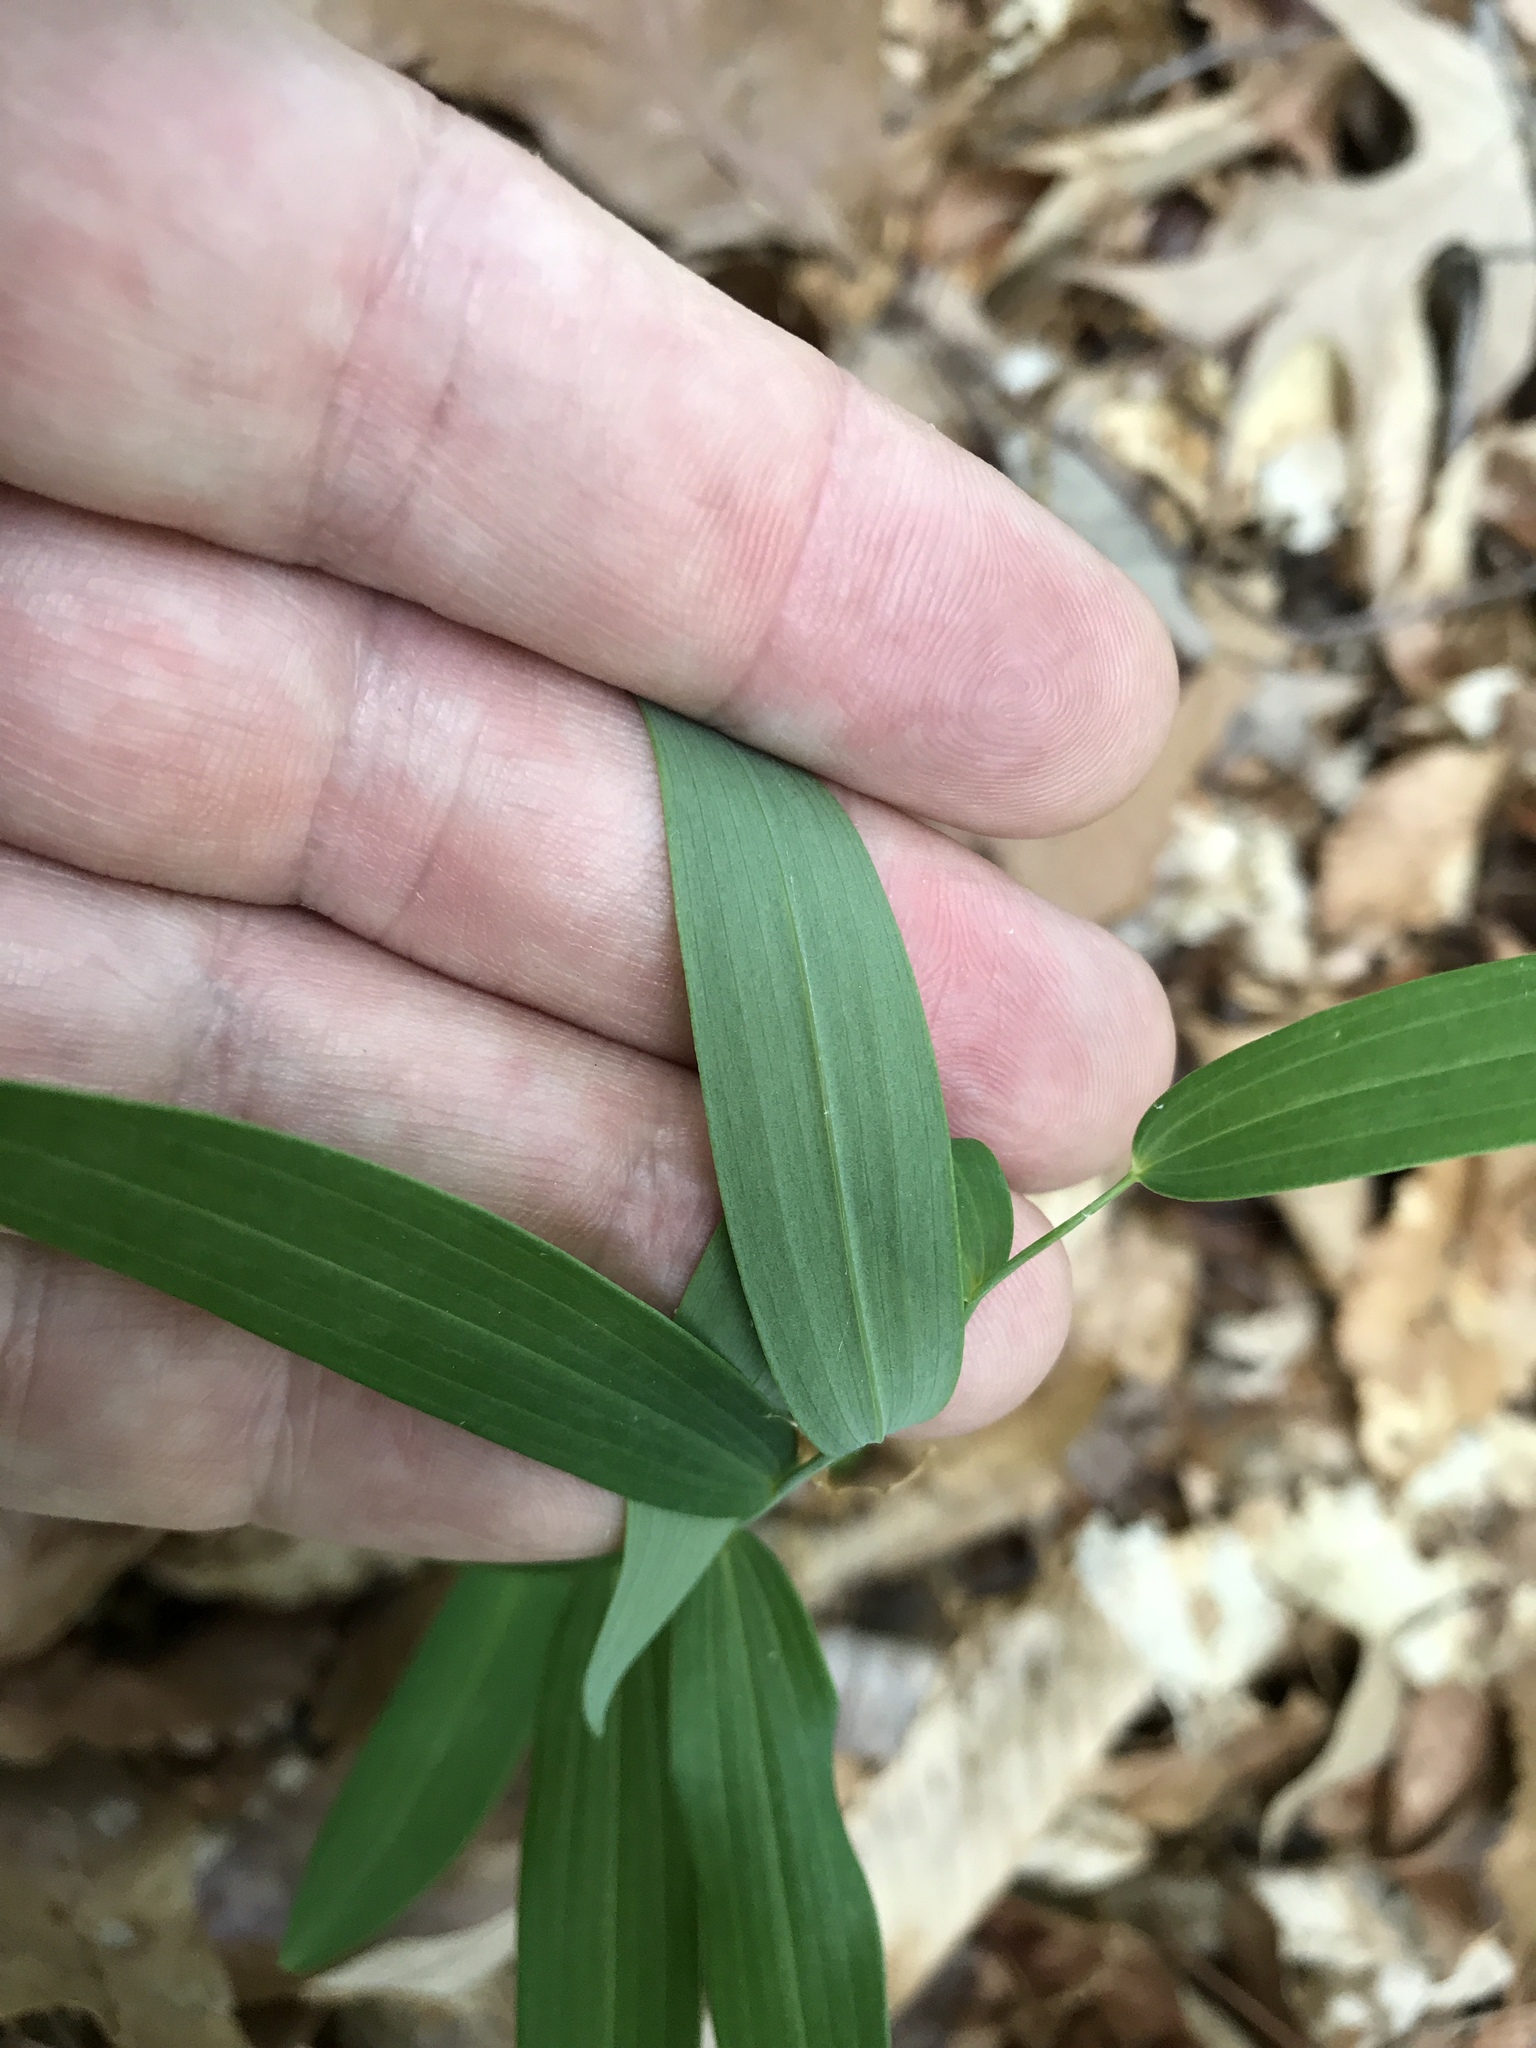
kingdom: Plantae
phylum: Tracheophyta
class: Liliopsida
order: Asparagales
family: Asparagaceae
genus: Polygonatum
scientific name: Polygonatum biflorum
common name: American solomon's-seal
